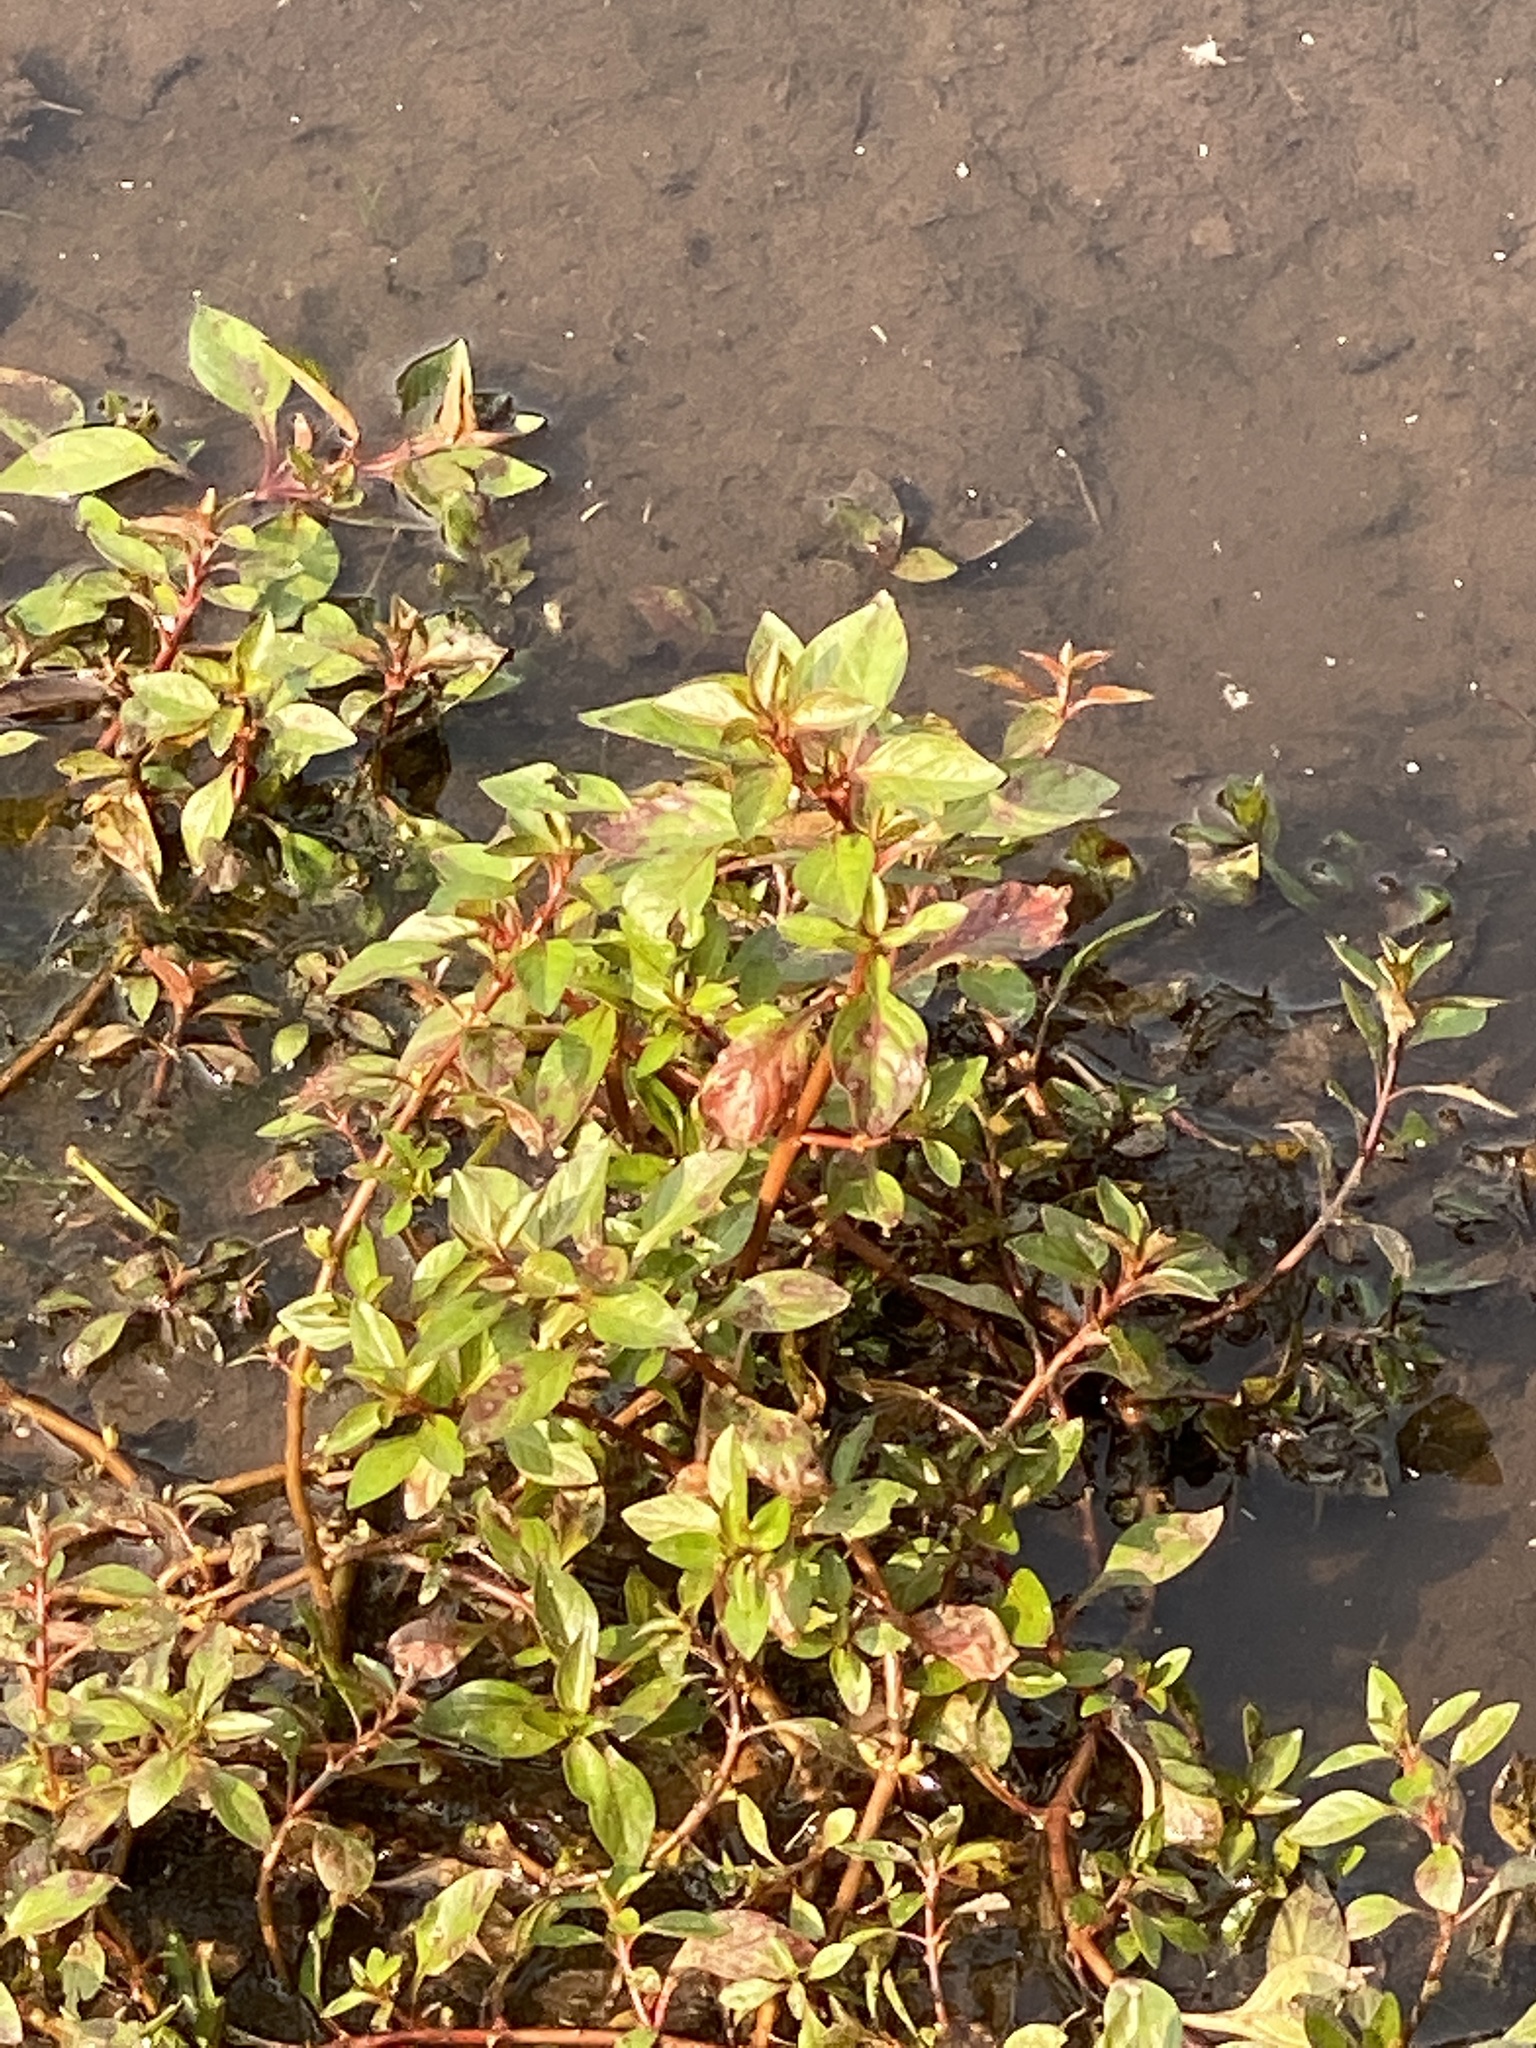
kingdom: Plantae
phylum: Tracheophyta
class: Magnoliopsida
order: Myrtales
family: Onagraceae
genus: Ludwigia
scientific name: Ludwigia palustris
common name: Hampshire-purslane
